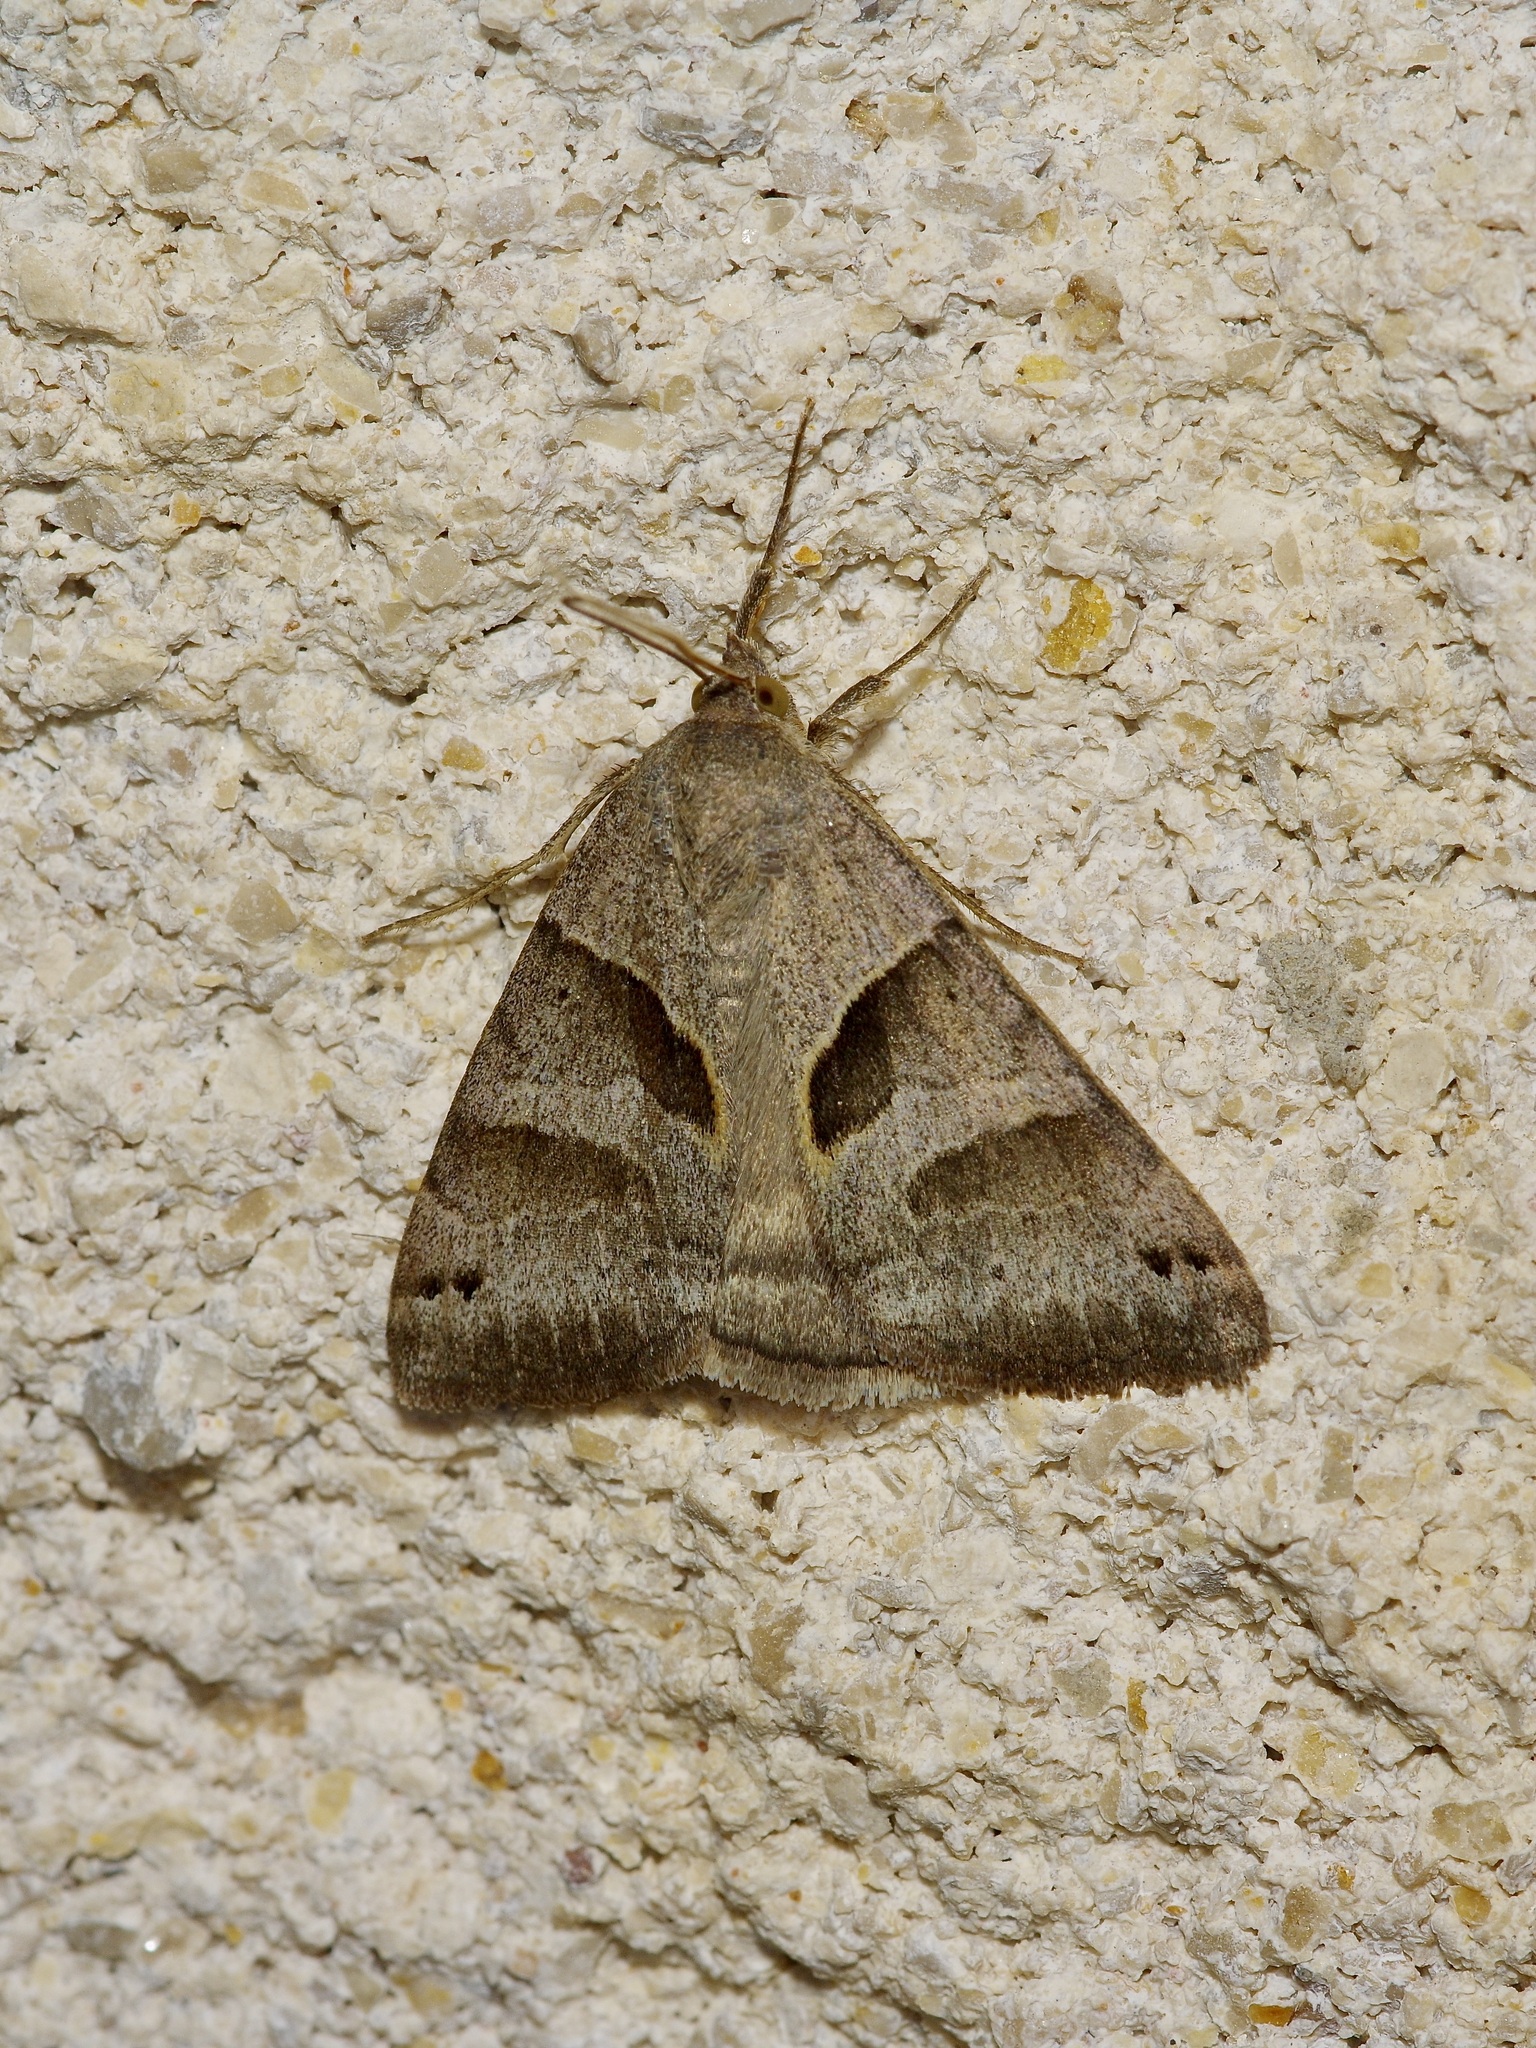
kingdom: Animalia
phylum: Arthropoda
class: Insecta
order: Lepidoptera
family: Erebidae
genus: Caenurgina
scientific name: Caenurgina erechtea
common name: Forage looper moth
